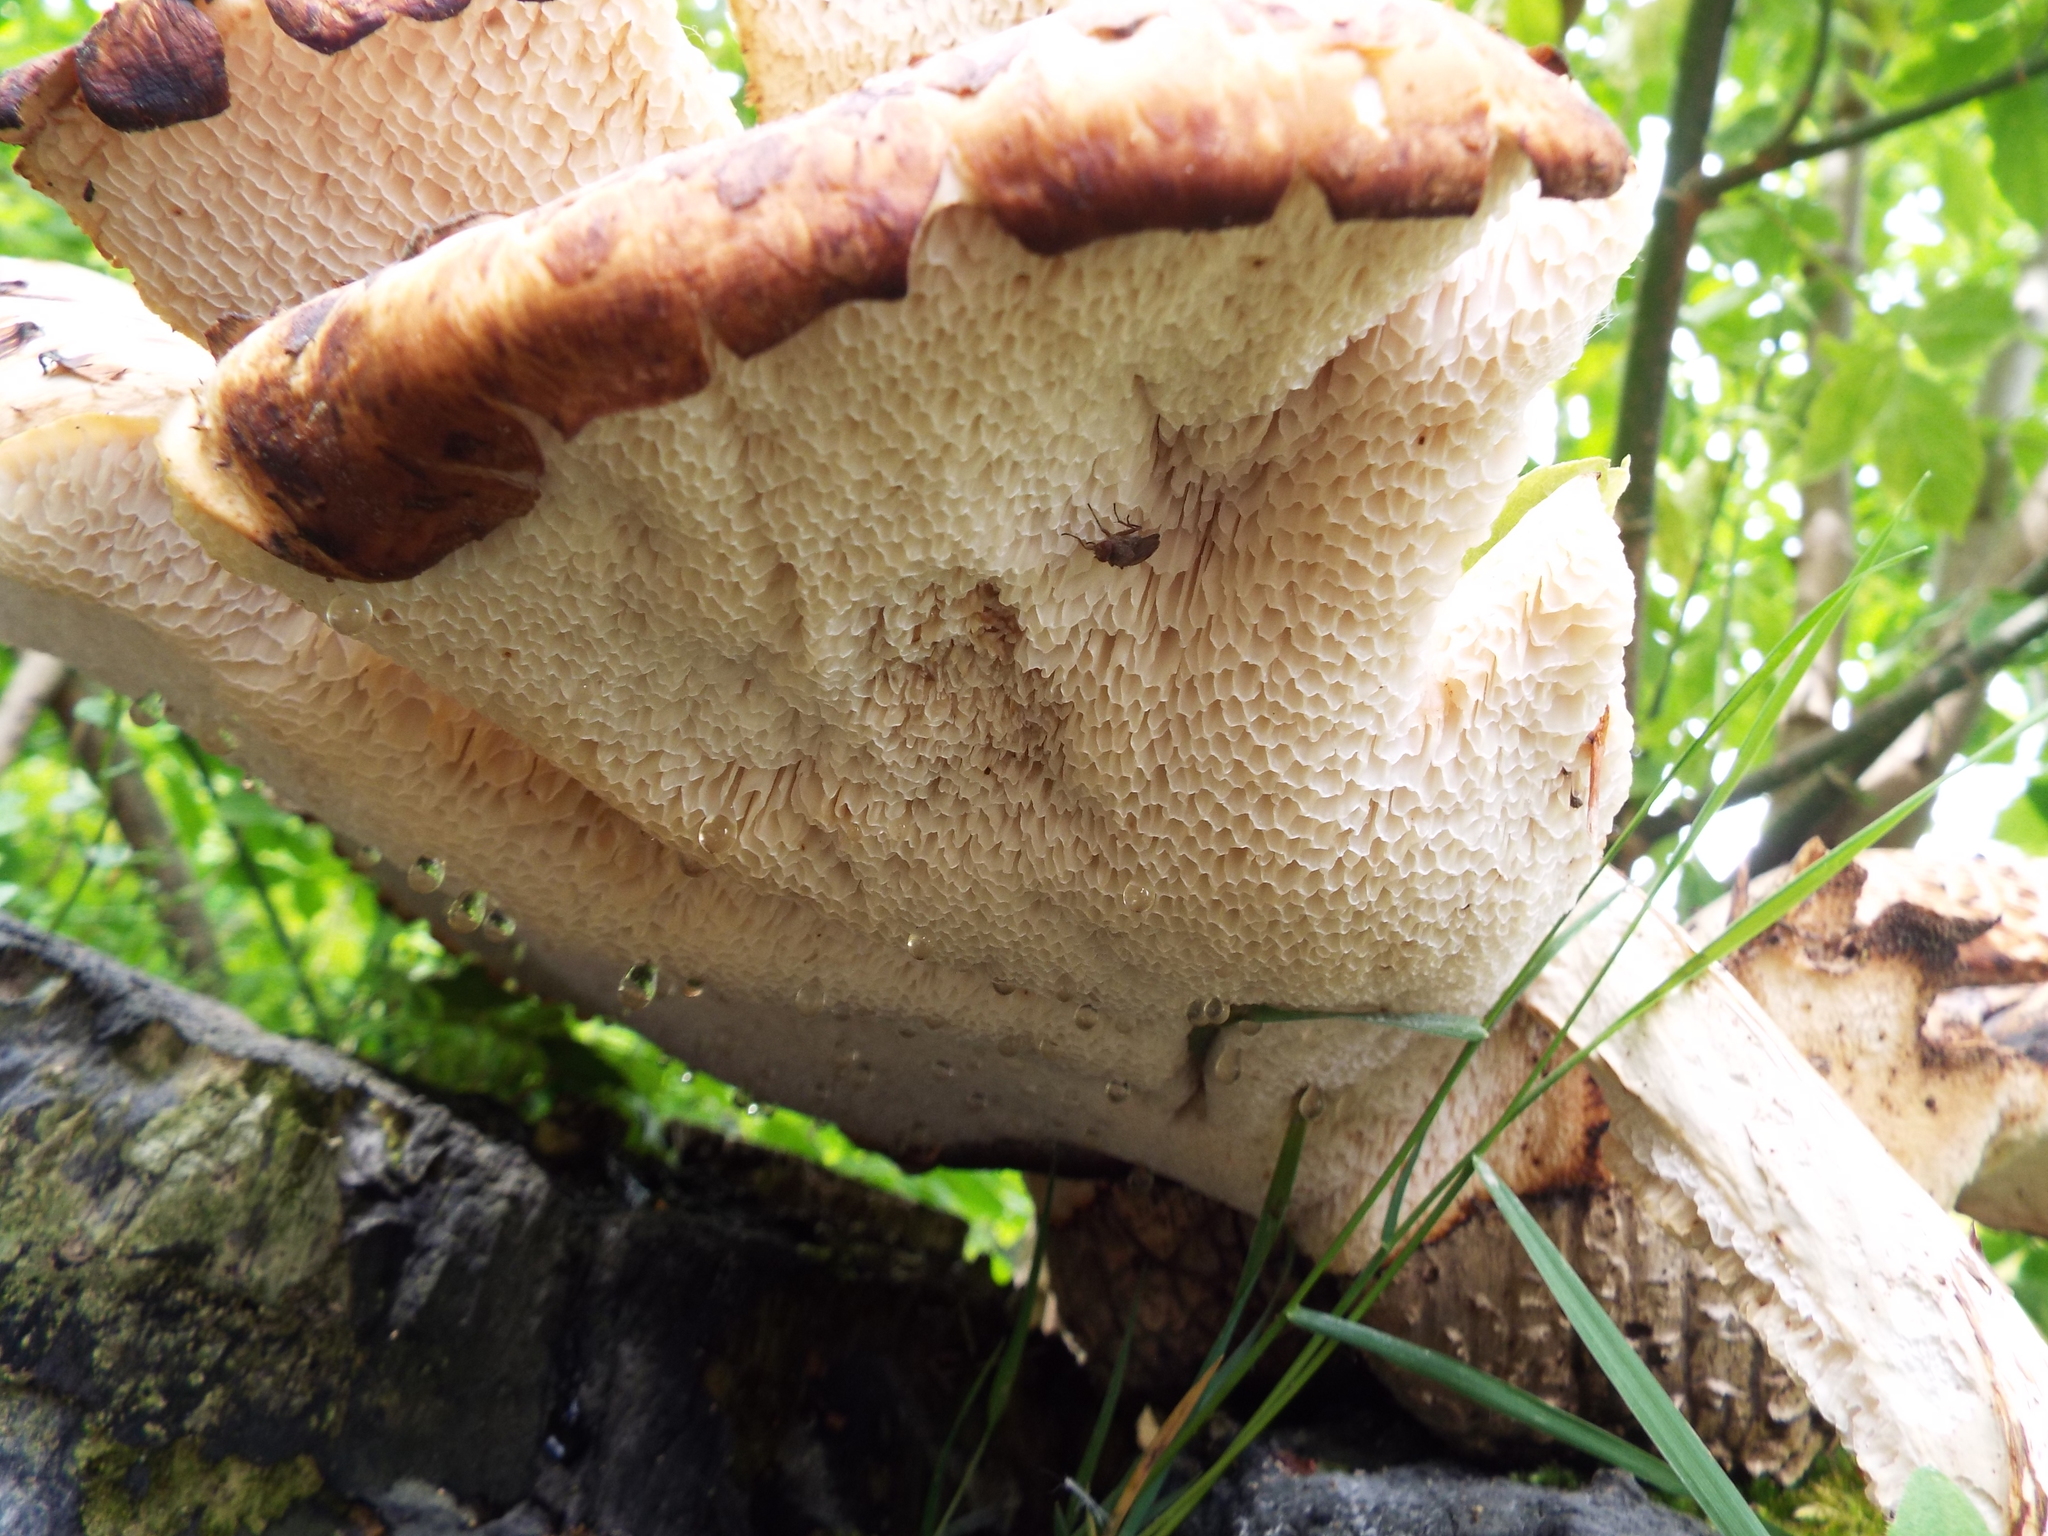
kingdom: Animalia
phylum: Arthropoda
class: Insecta
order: Diptera
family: Heleomyzidae
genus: Suillia
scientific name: Suillia variegata
